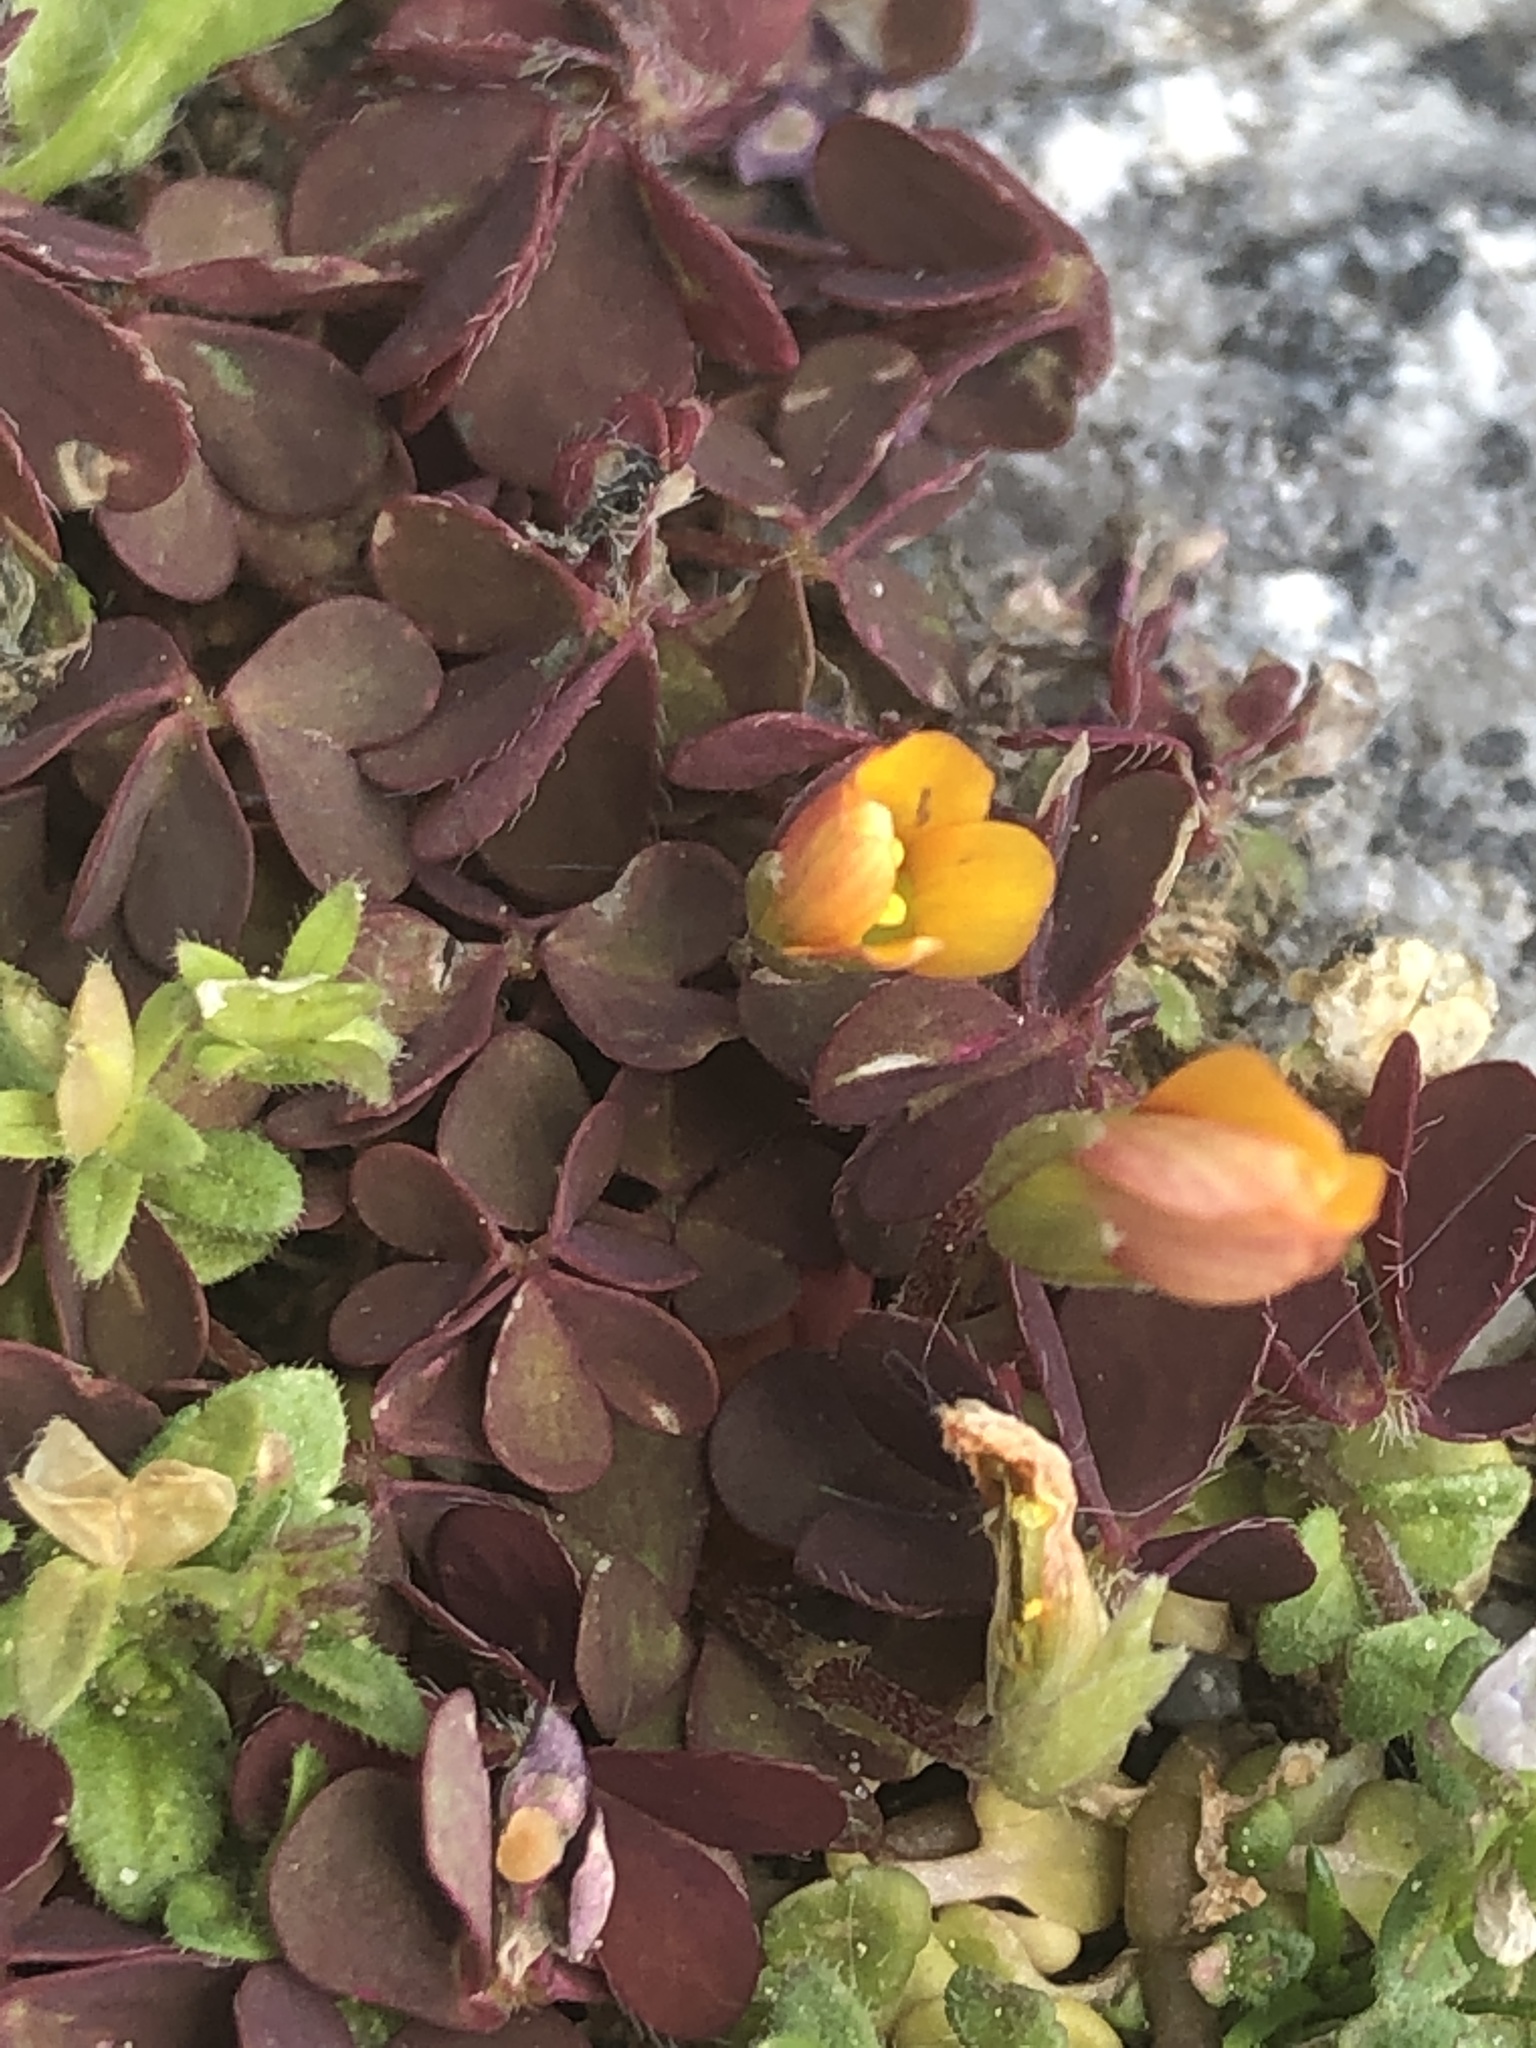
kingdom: Plantae
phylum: Tracheophyta
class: Magnoliopsida
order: Oxalidales
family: Oxalidaceae
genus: Oxalis
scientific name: Oxalis corniculata
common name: Procumbent yellow-sorrel
